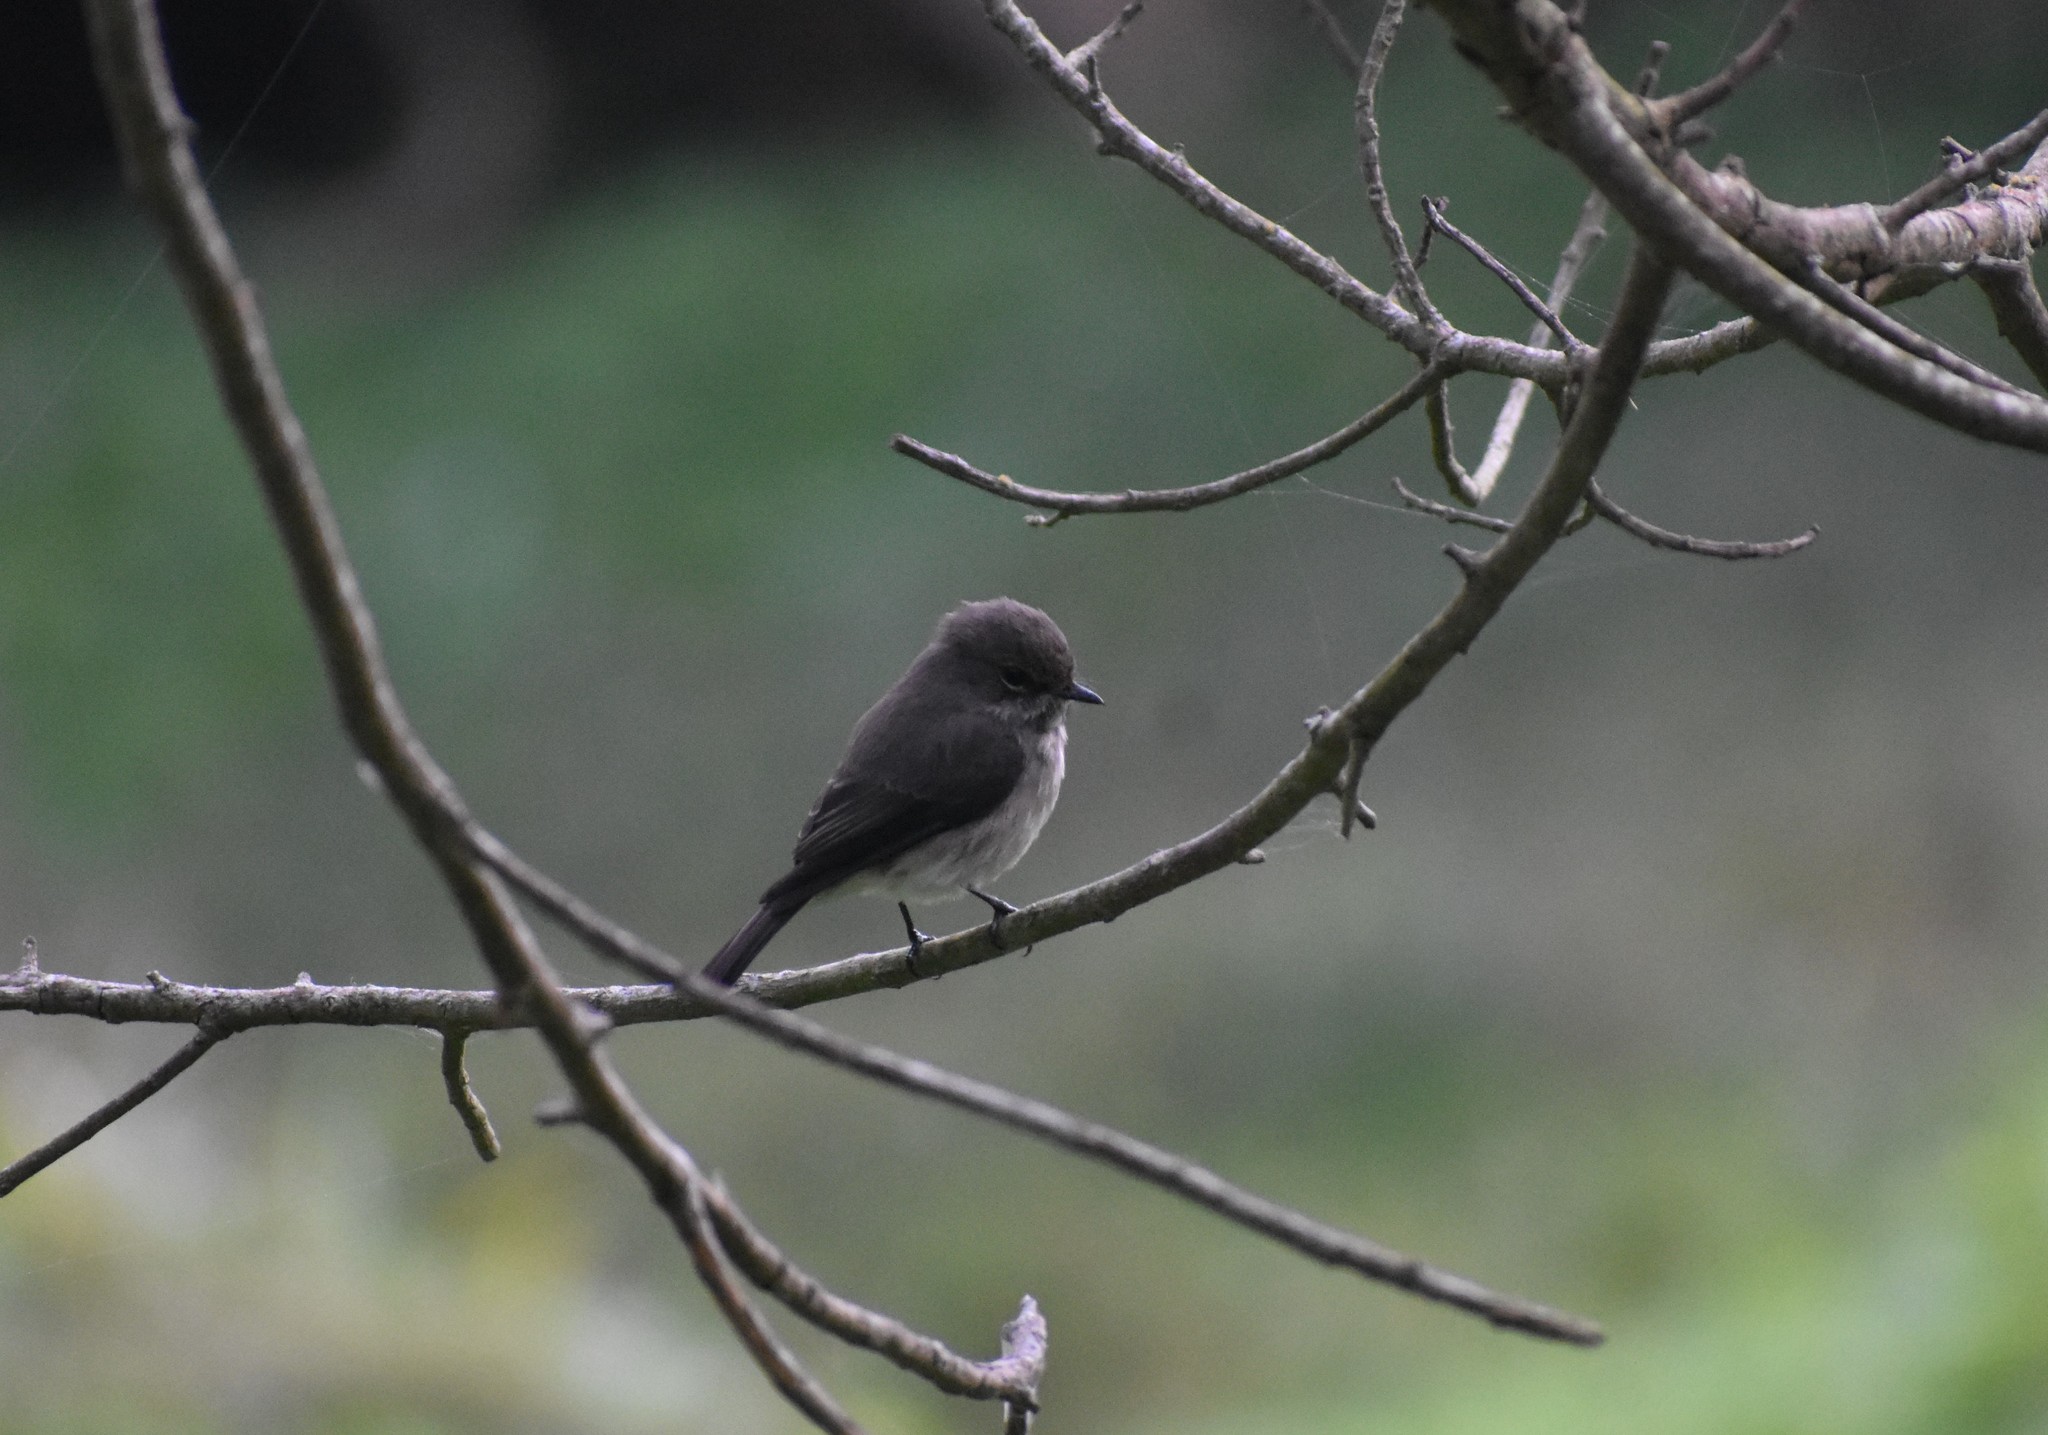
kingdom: Animalia
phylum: Chordata
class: Aves
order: Passeriformes
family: Muscicapidae
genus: Muscicapa
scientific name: Muscicapa adusta
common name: African dusky flycatcher
